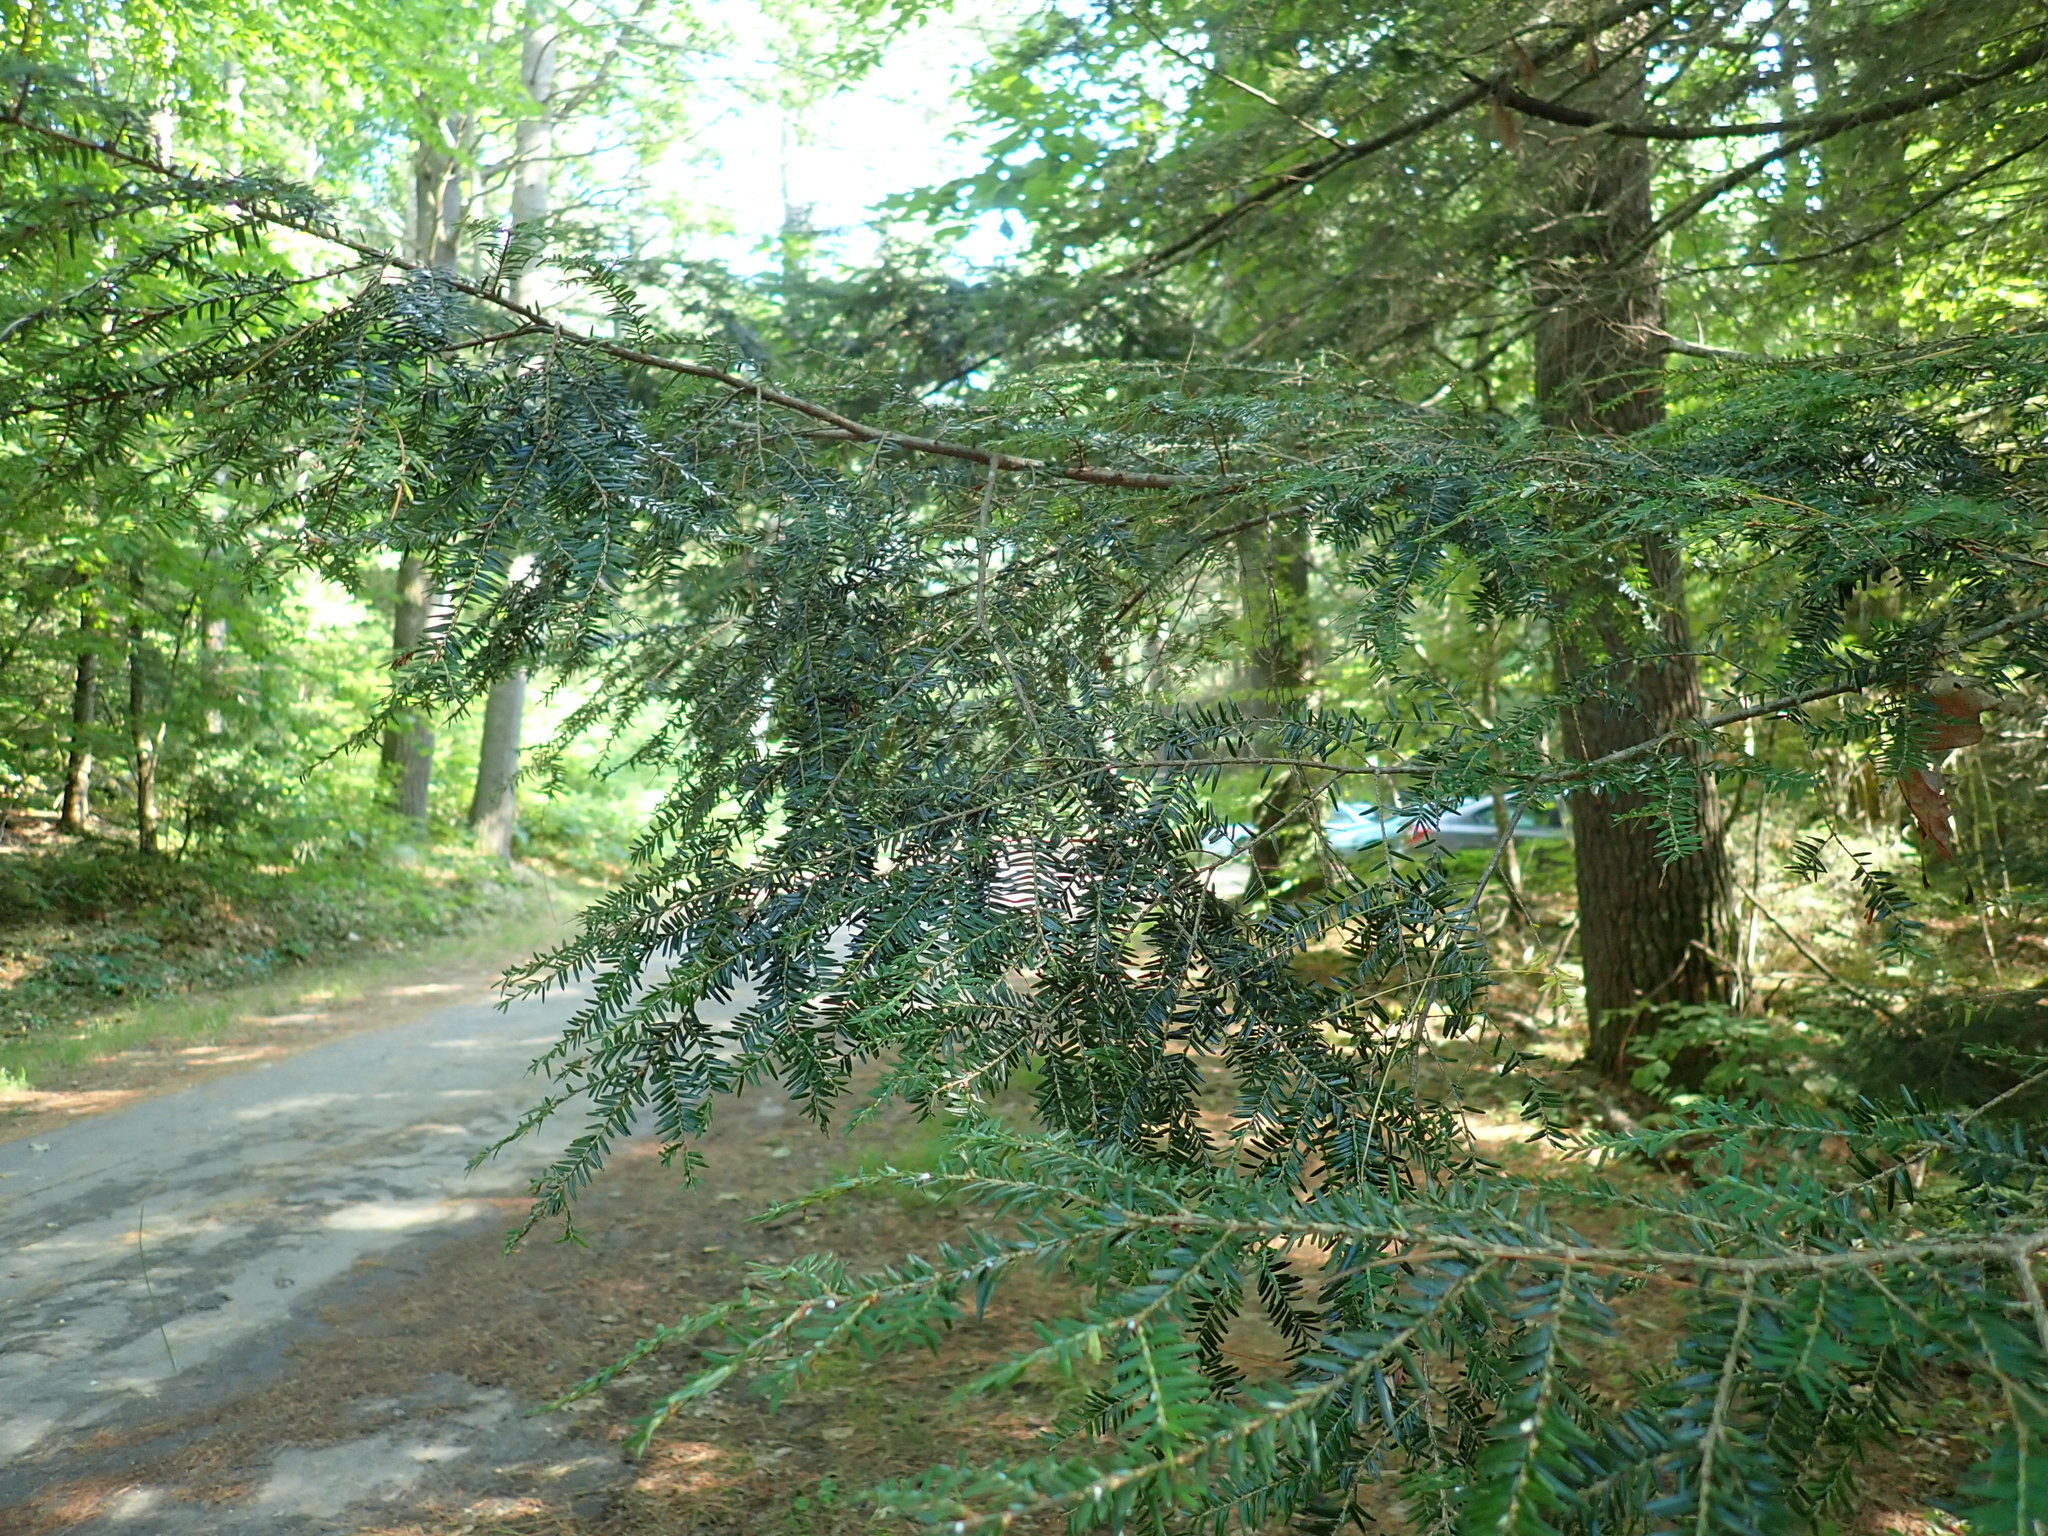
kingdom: Plantae
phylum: Tracheophyta
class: Pinopsida
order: Pinales
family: Pinaceae
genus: Tsuga
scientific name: Tsuga canadensis
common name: Eastern hemlock
